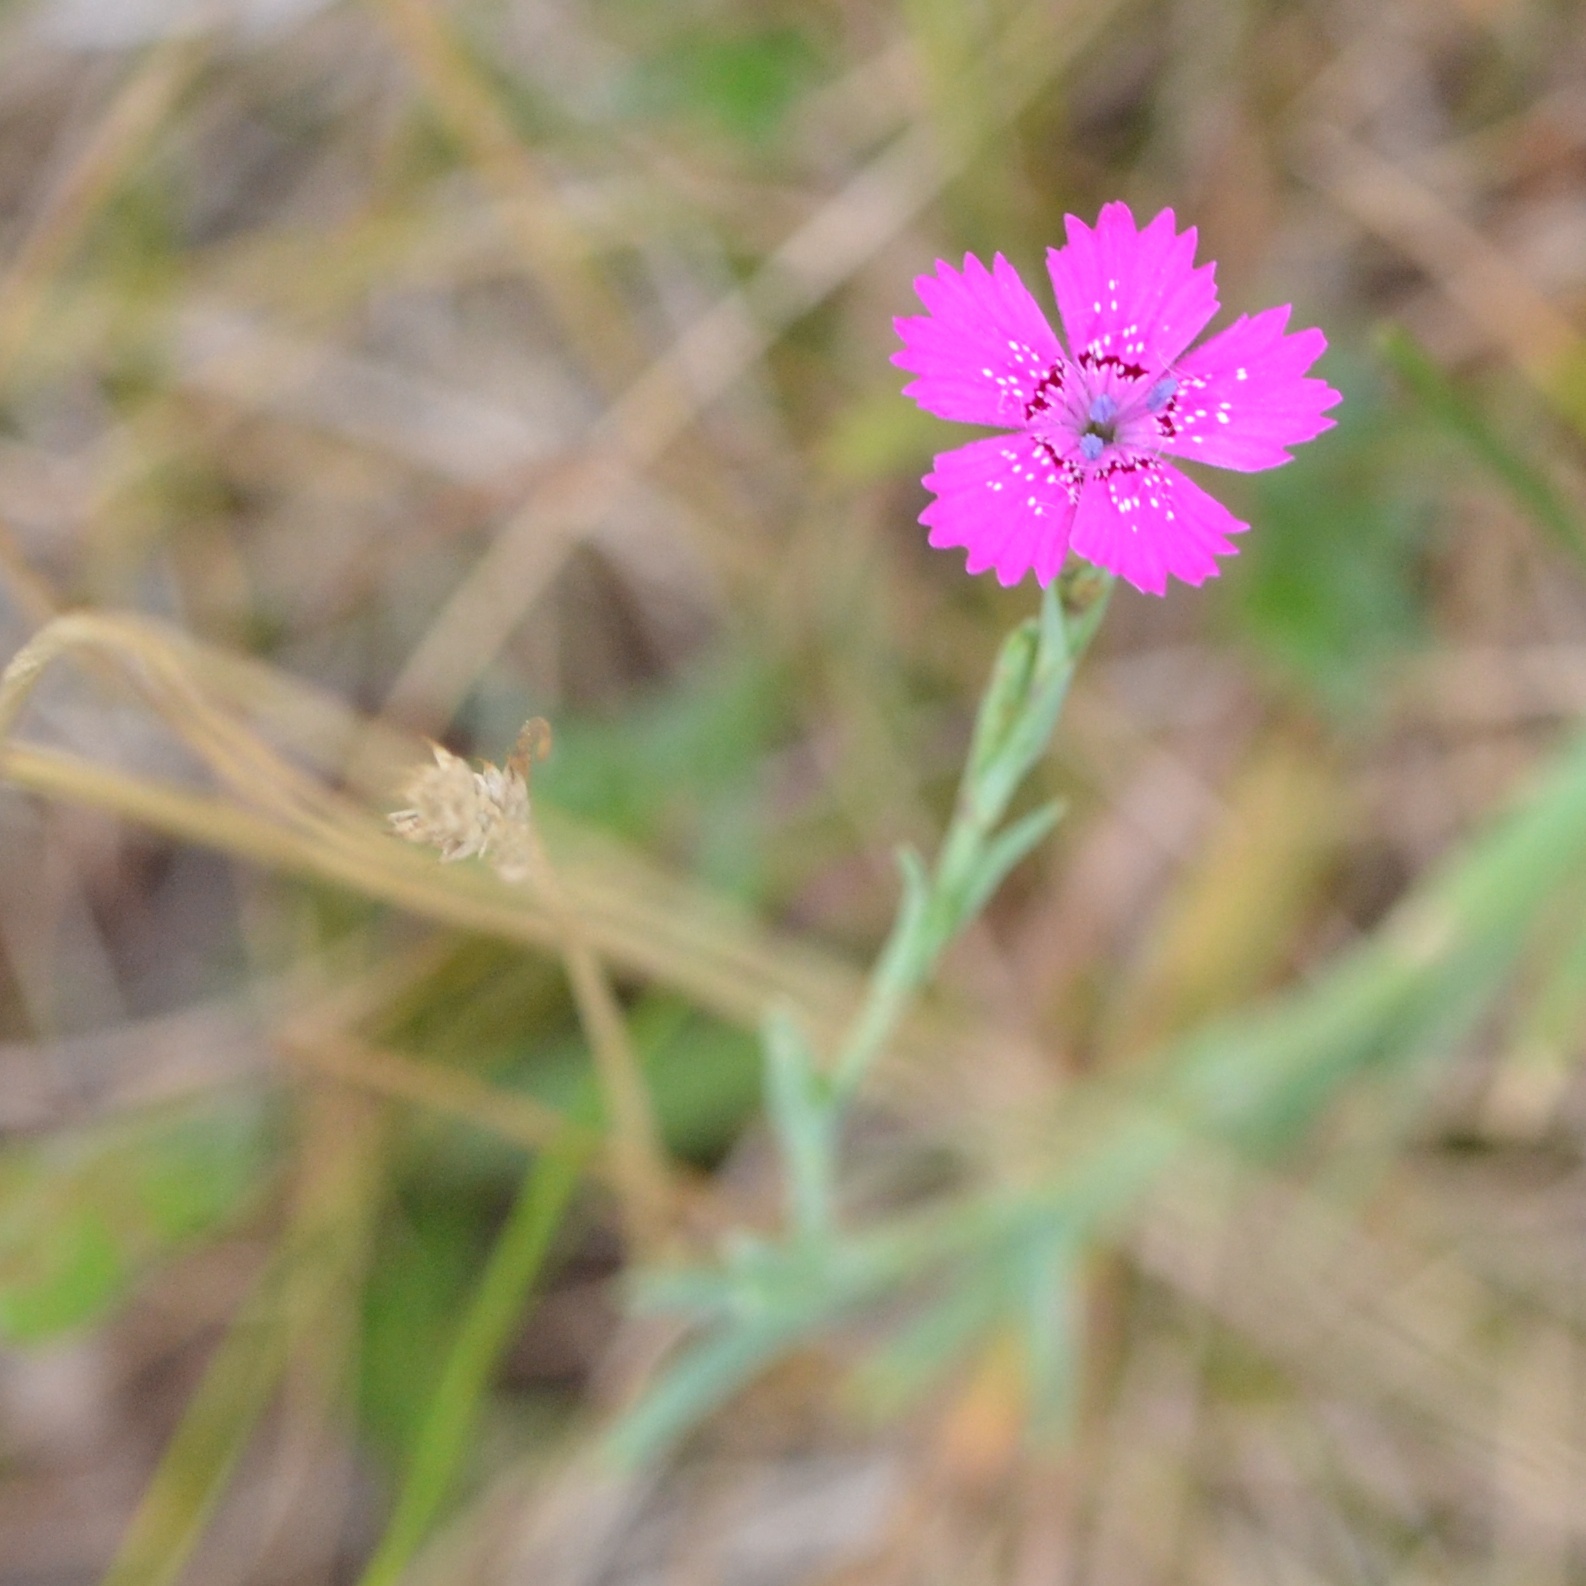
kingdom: Plantae
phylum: Tracheophyta
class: Magnoliopsida
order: Caryophyllales
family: Caryophyllaceae
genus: Dianthus
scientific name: Dianthus deltoides
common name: Maiden pink
